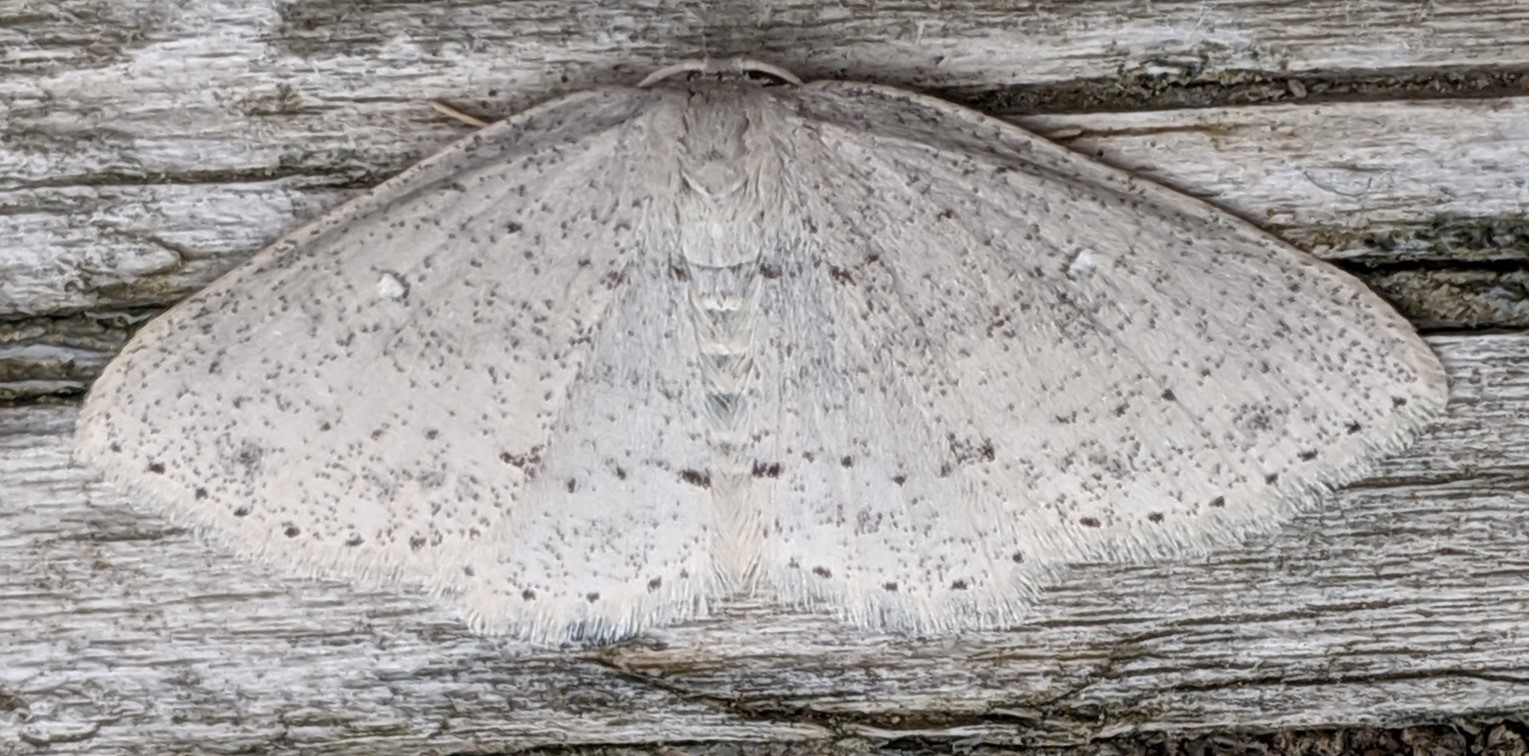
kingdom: Animalia
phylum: Arthropoda
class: Insecta
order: Lepidoptera
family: Geometridae
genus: Cyclophora
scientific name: Cyclophora pendulinaria
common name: Sweet fern geometer
